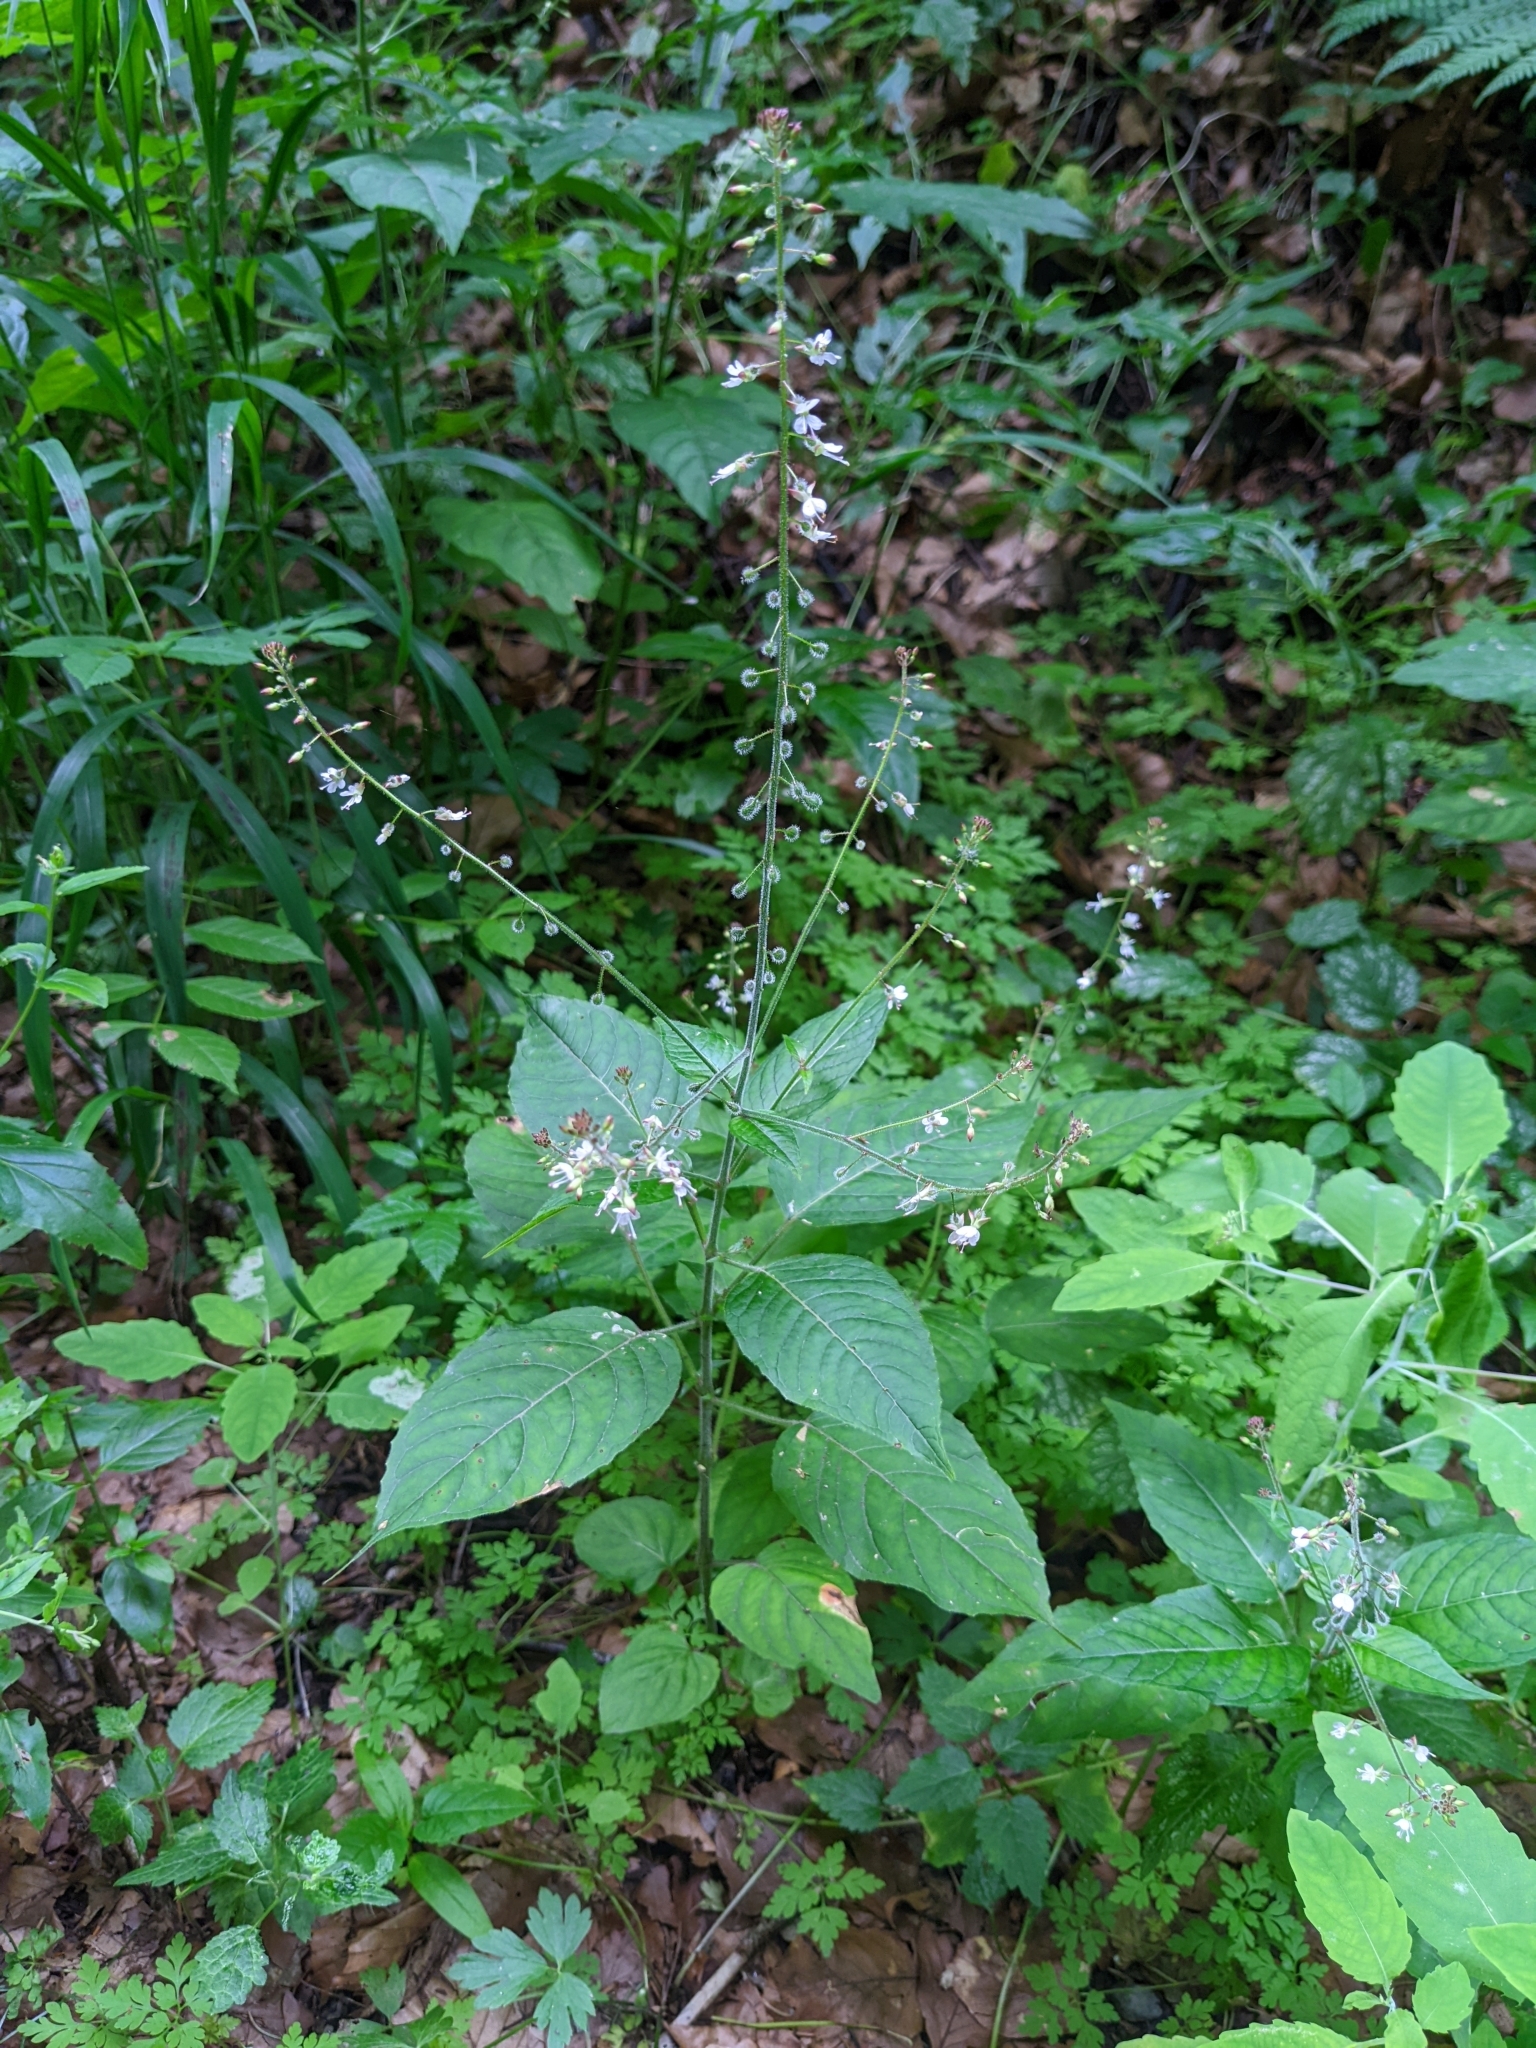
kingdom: Plantae
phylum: Tracheophyta
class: Magnoliopsida
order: Myrtales
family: Onagraceae
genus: Circaea
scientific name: Circaea lutetiana
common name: Enchanter's-nightshade
